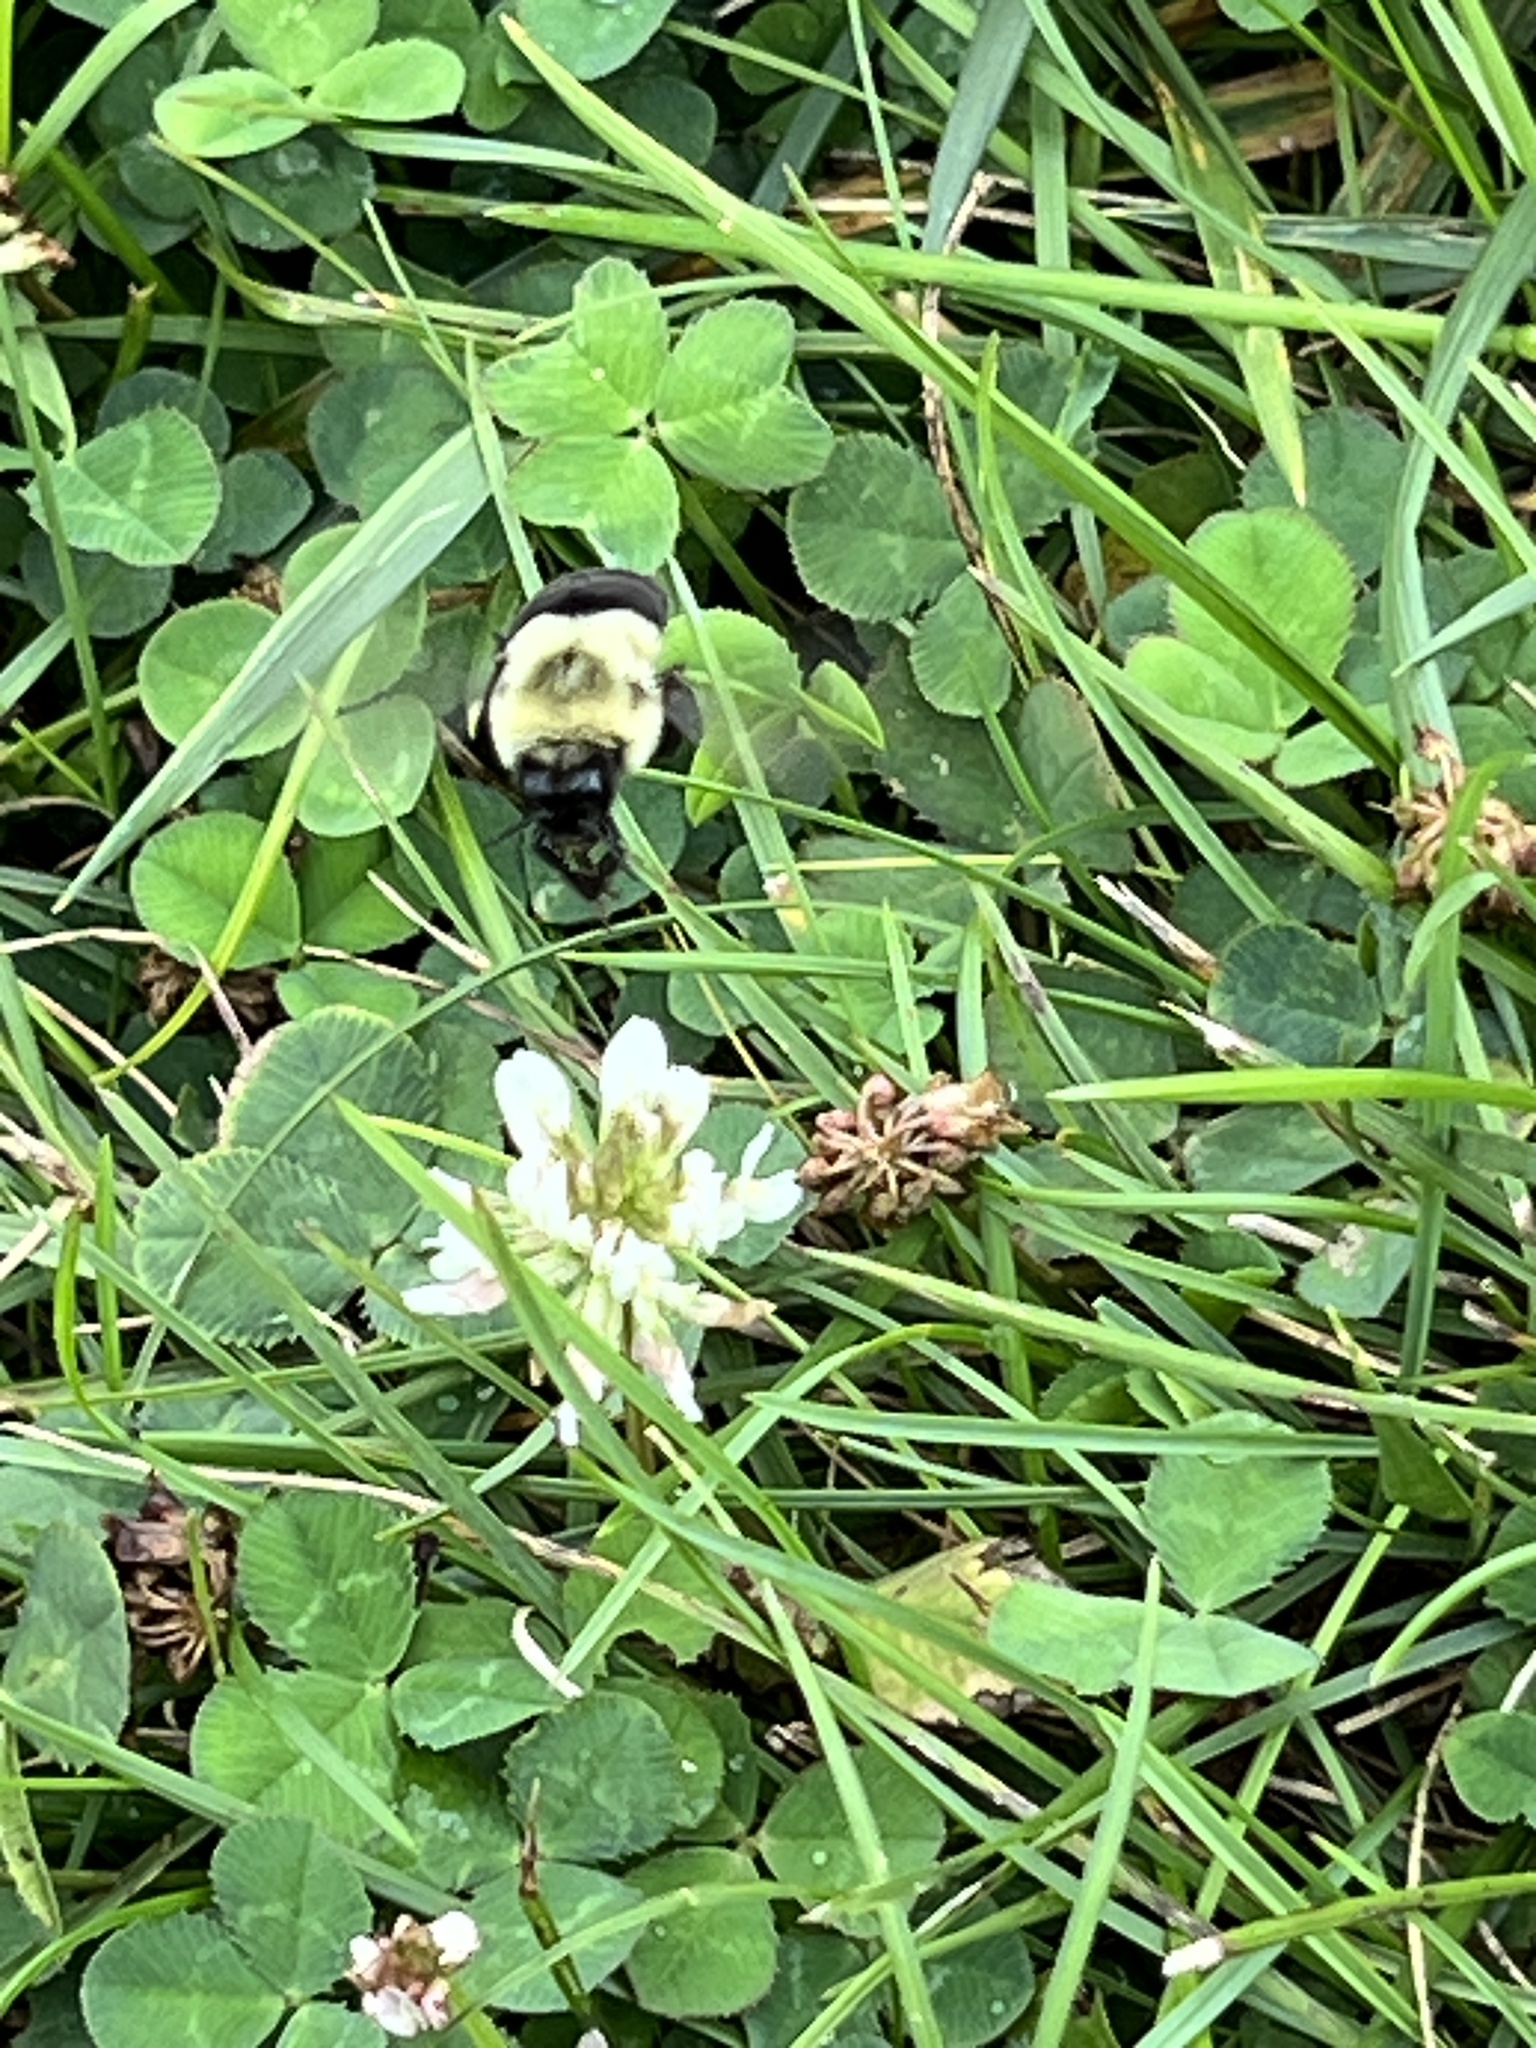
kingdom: Animalia
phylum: Arthropoda
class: Insecta
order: Hymenoptera
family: Apidae
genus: Bombus
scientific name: Bombus impatiens
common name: Common eastern bumble bee
